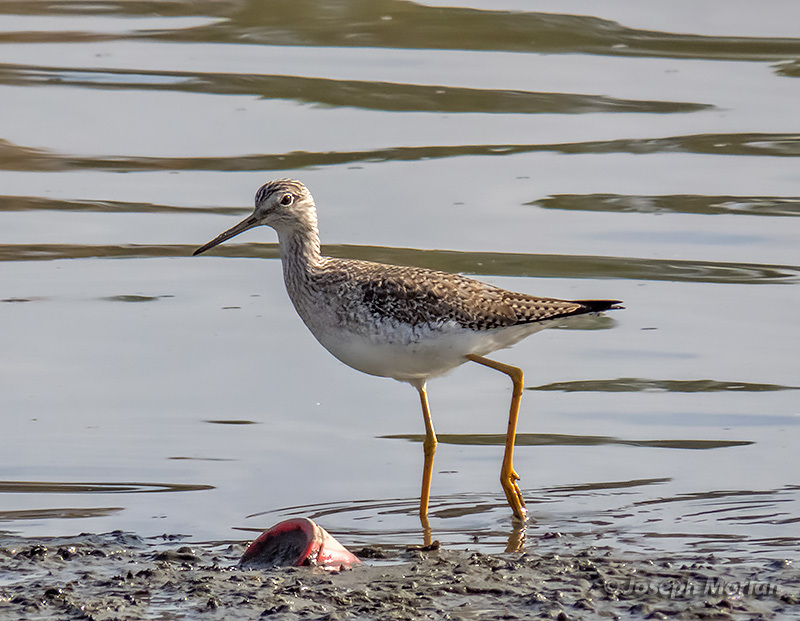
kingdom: Animalia
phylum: Chordata
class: Aves
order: Charadriiformes
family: Scolopacidae
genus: Tringa
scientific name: Tringa melanoleuca
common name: Greater yellowlegs
